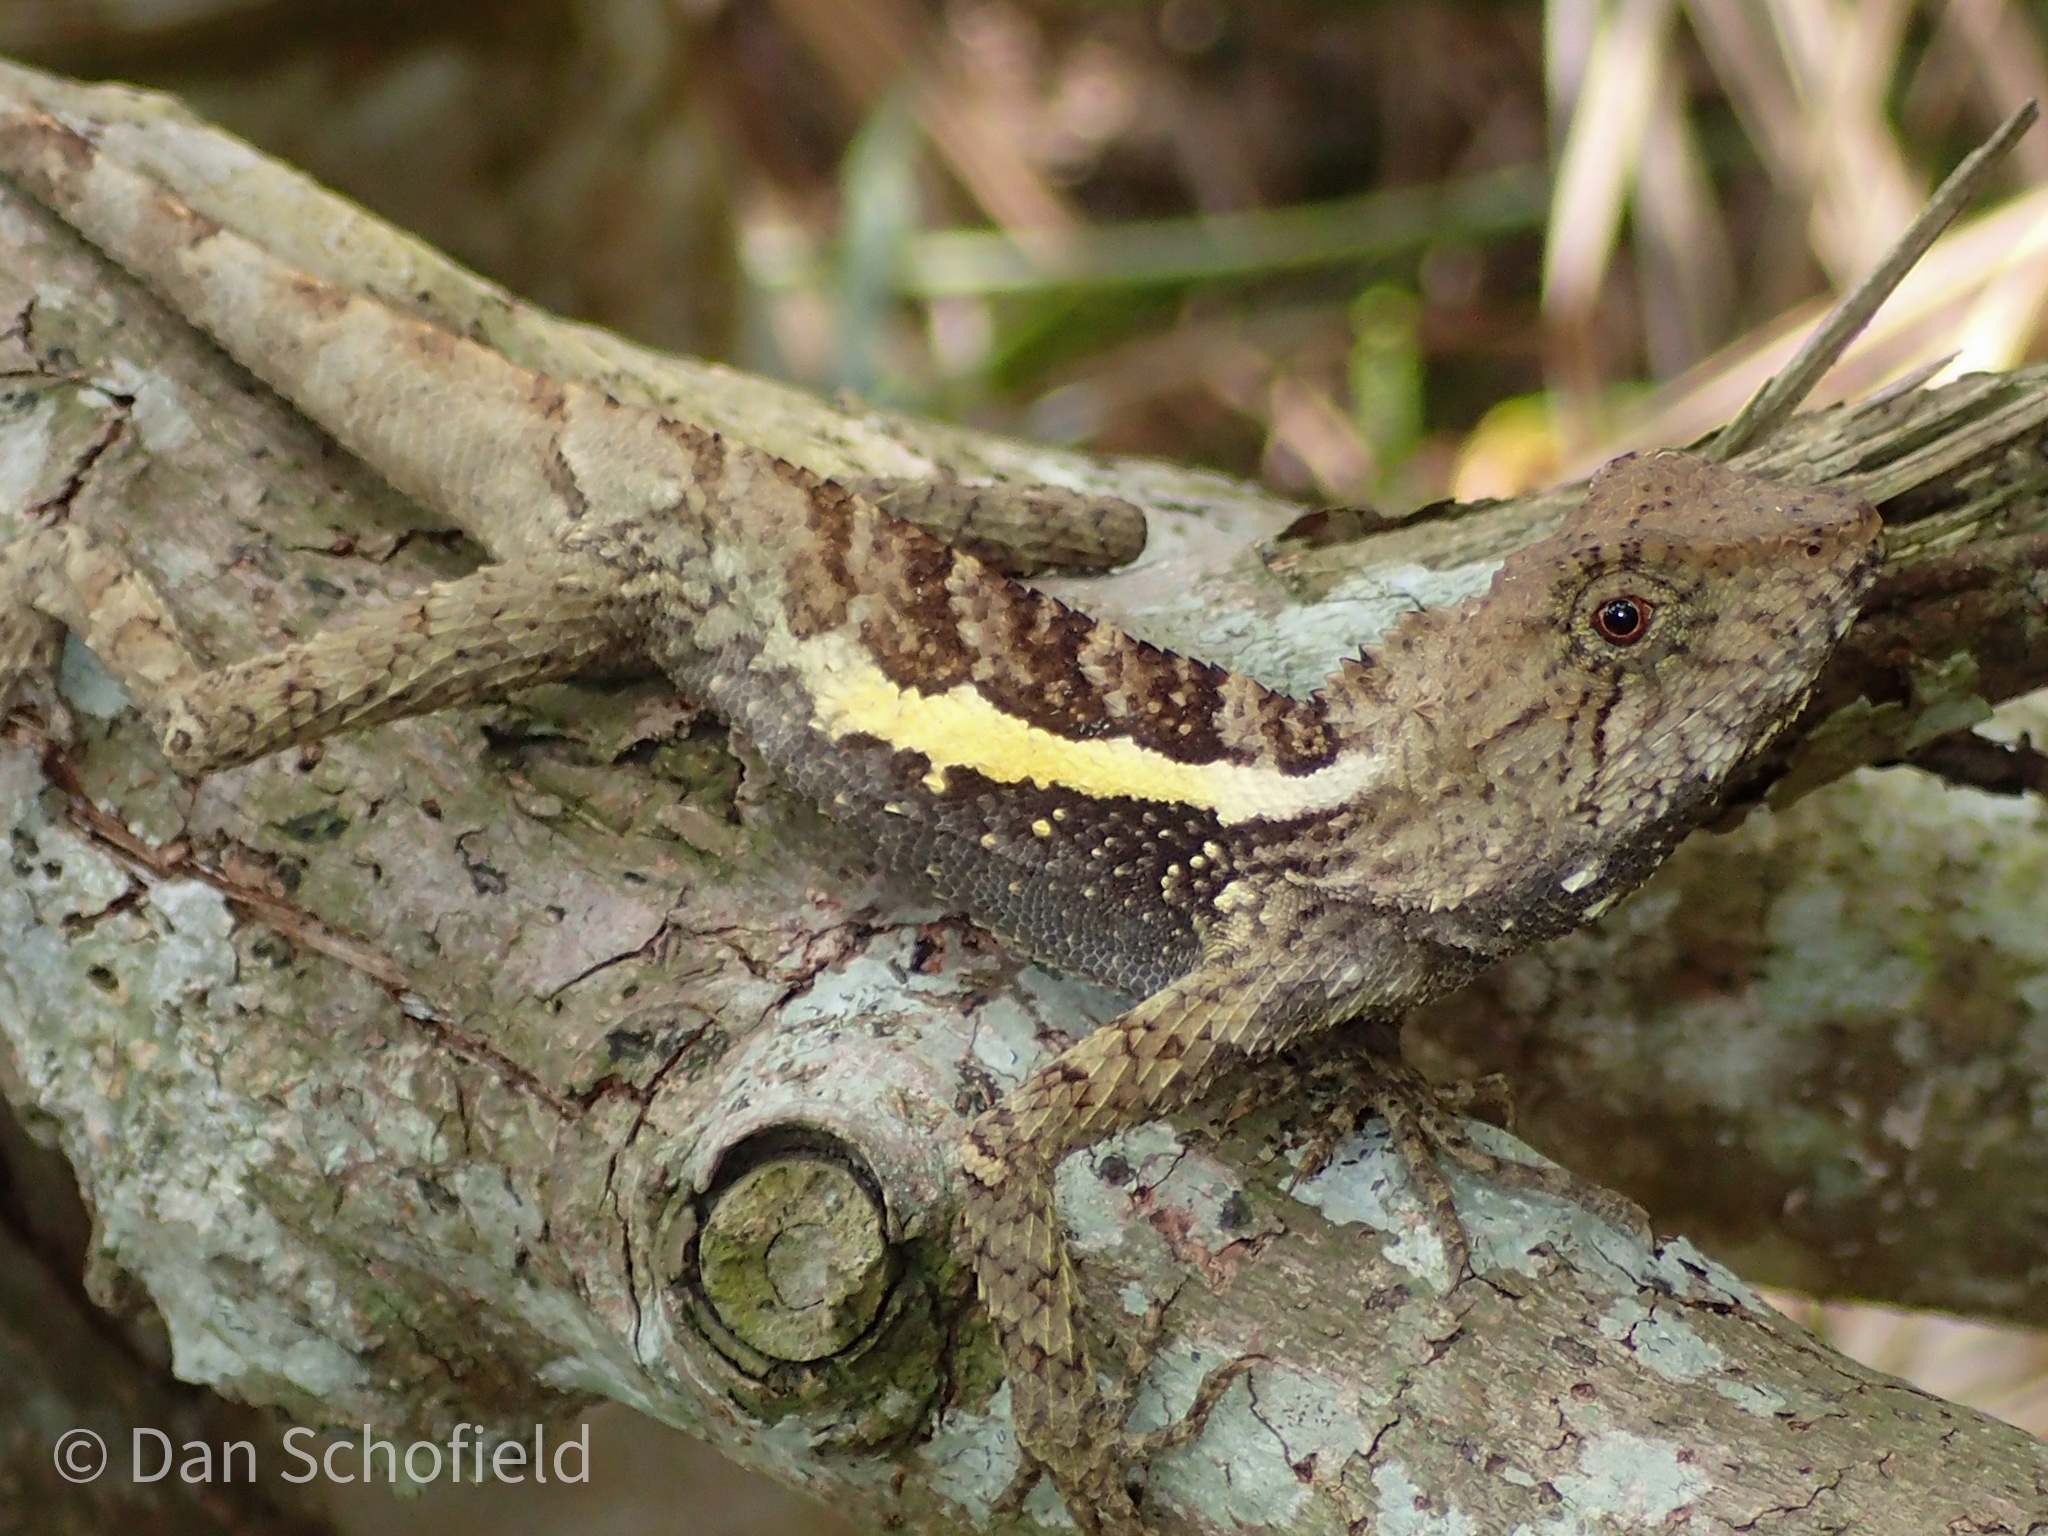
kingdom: Animalia
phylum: Chordata
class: Squamata
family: Agamidae
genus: Diploderma
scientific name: Diploderma swinhonis
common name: Taiwan japalure
